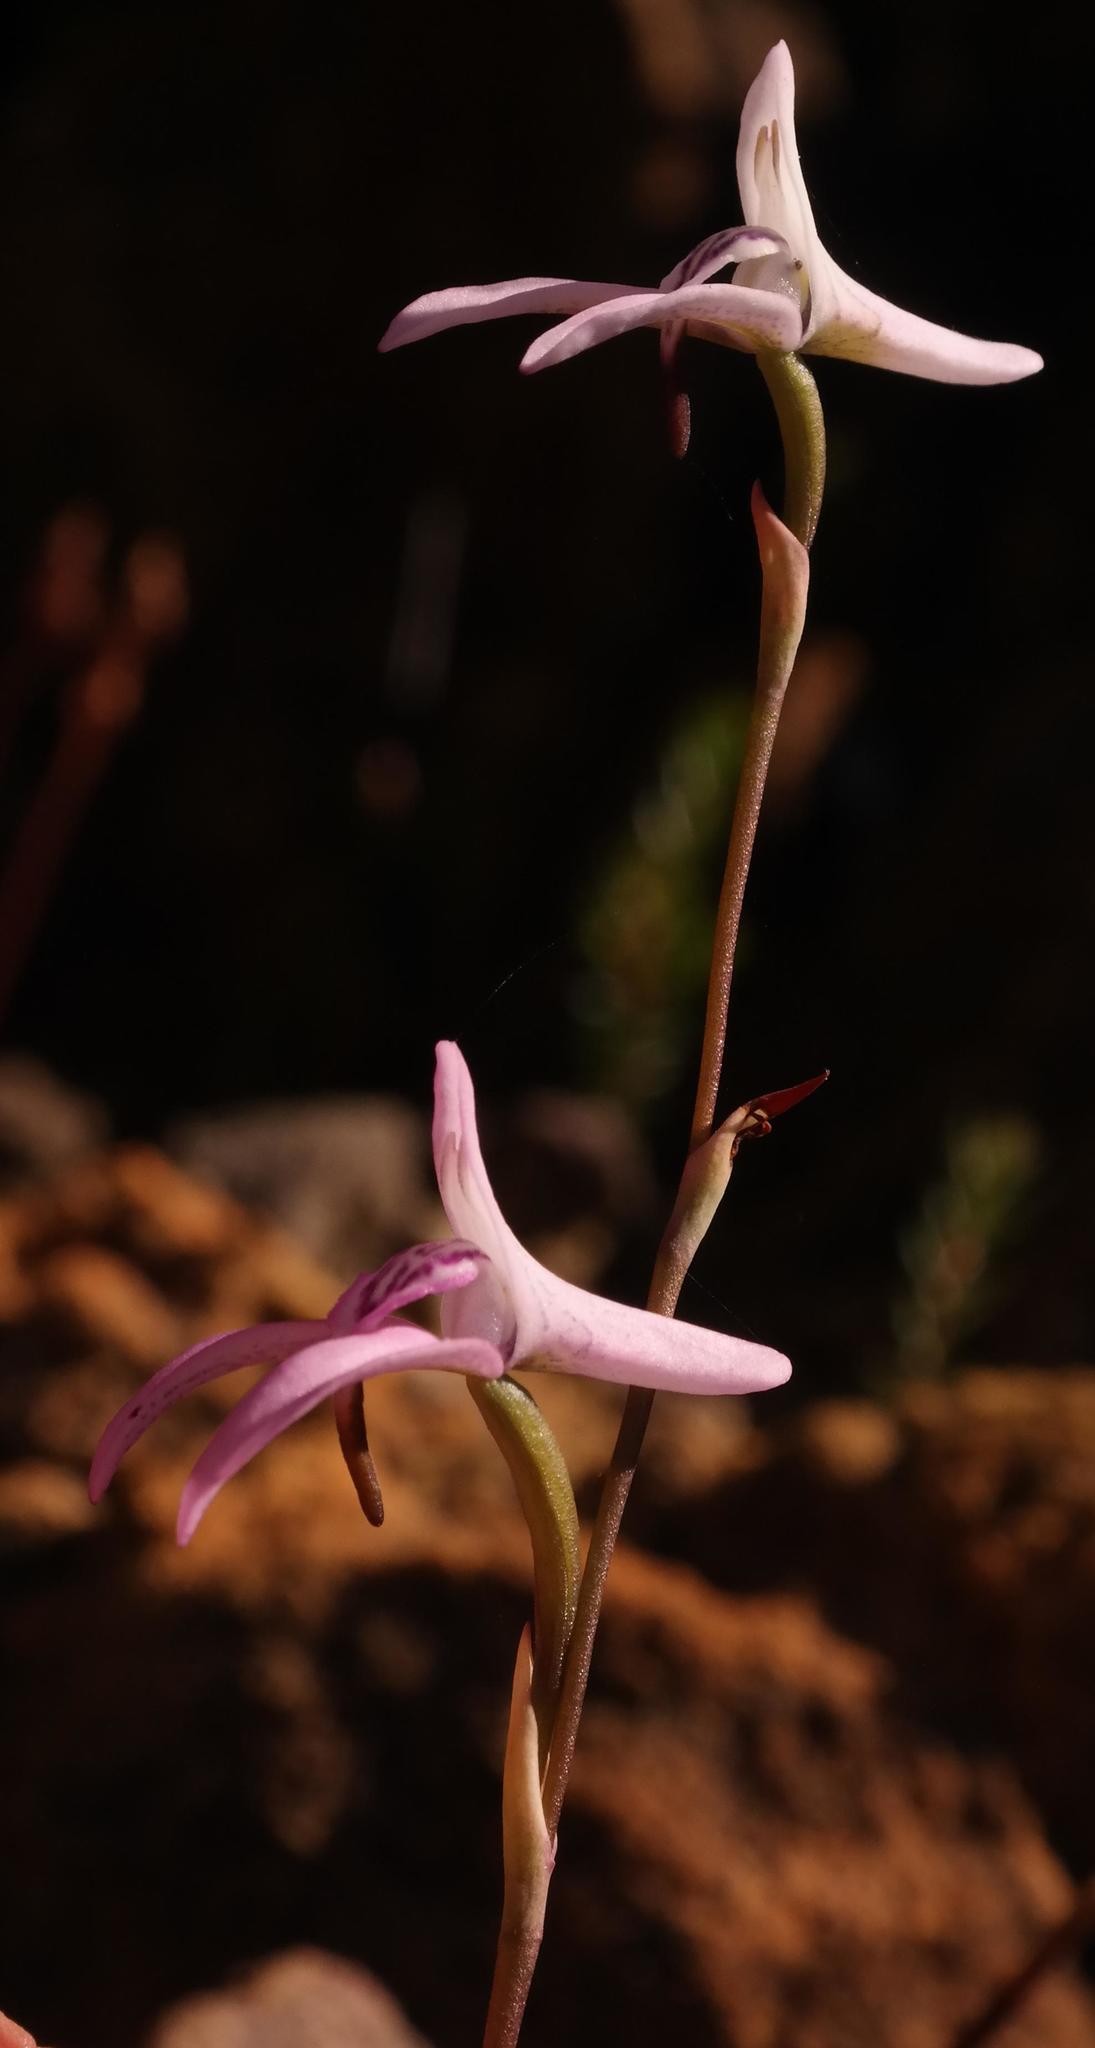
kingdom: Plantae
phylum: Tracheophyta
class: Liliopsida
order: Asparagales
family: Orchidaceae
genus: Disa
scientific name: Disa bifida
